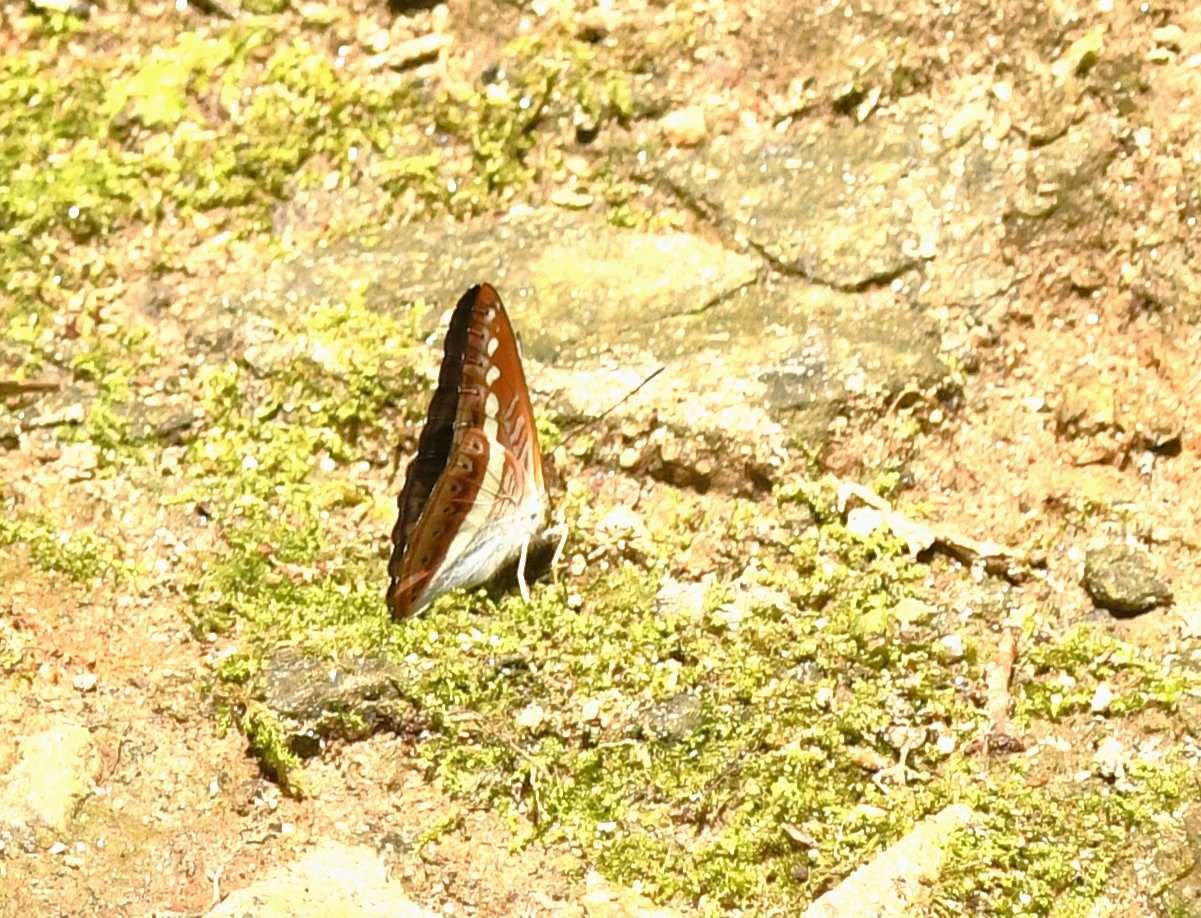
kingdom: Animalia
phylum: Arthropoda
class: Insecta
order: Lepidoptera
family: Nymphalidae
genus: Limenitis
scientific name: Limenitis Sumalia daraxa
